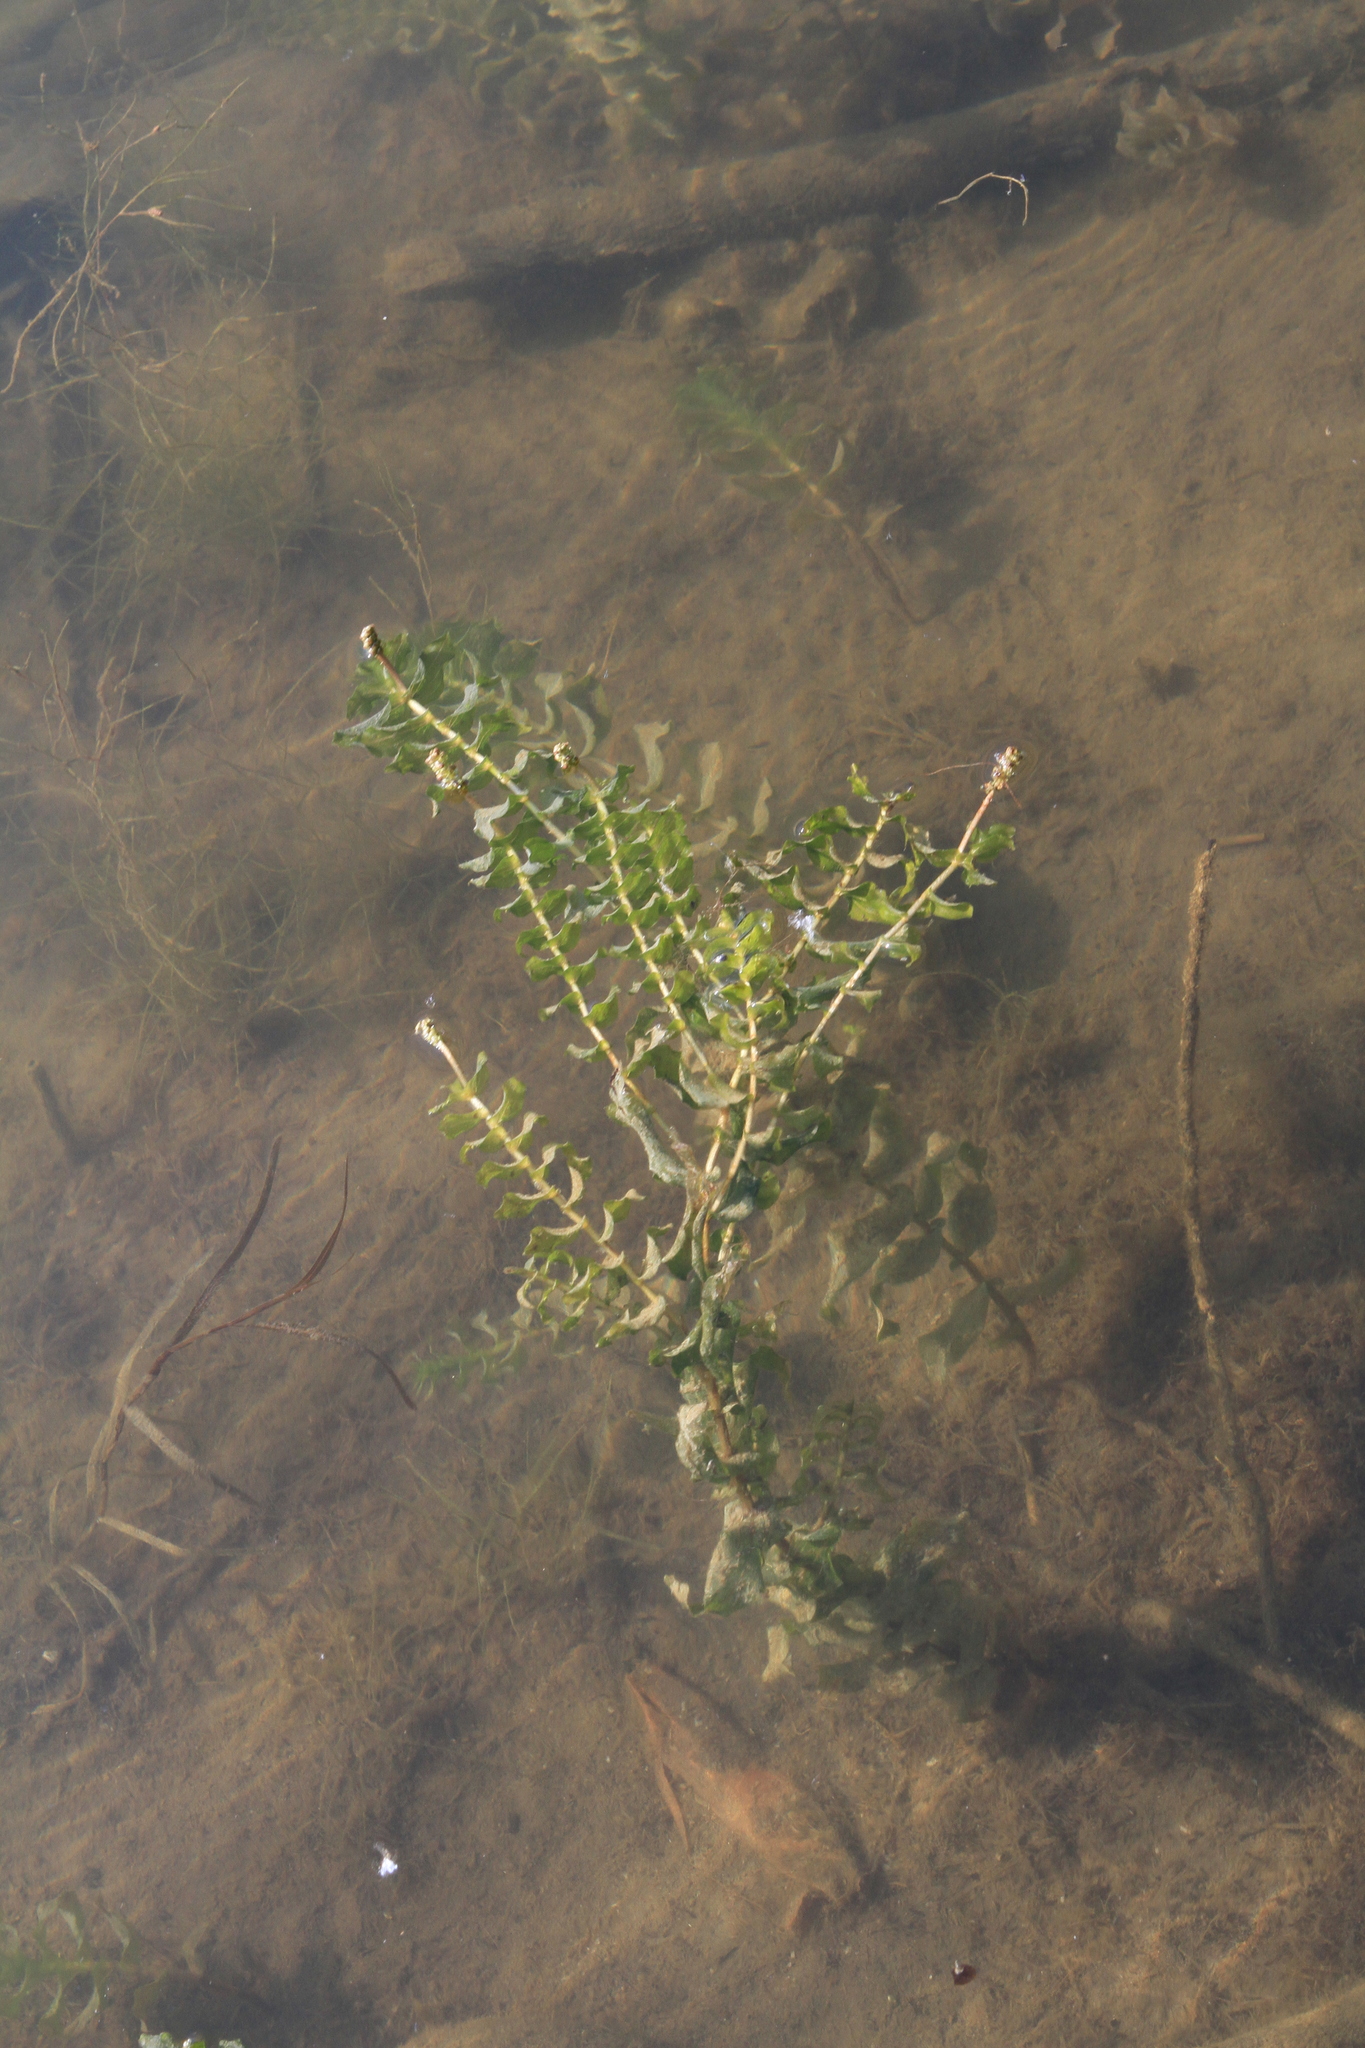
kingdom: Plantae
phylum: Tracheophyta
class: Liliopsida
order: Alismatales
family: Potamogetonaceae
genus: Potamogeton
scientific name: Potamogeton perfoliatus
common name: Perfoliate pondweed
